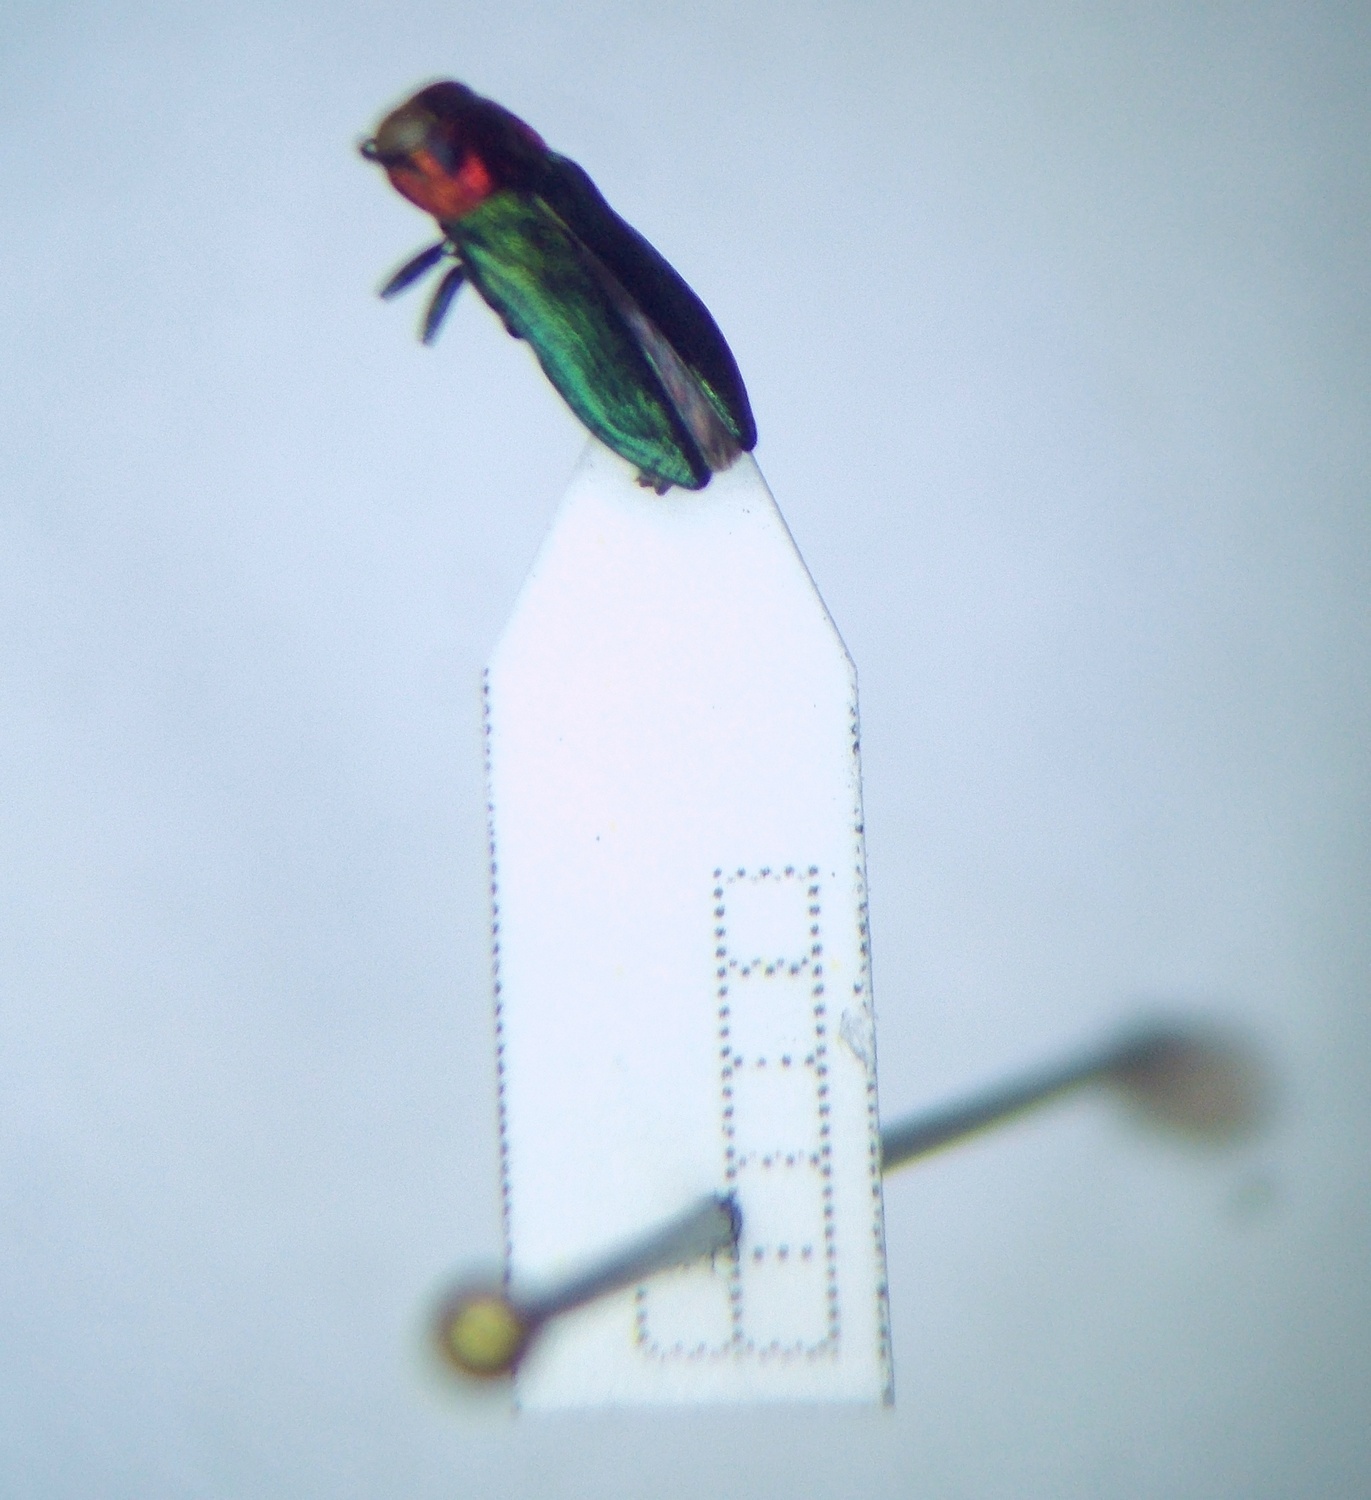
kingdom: Animalia
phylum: Arthropoda
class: Insecta
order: Coleoptera
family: Buprestidae
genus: Anthaxia
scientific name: Anthaxia nitidula
